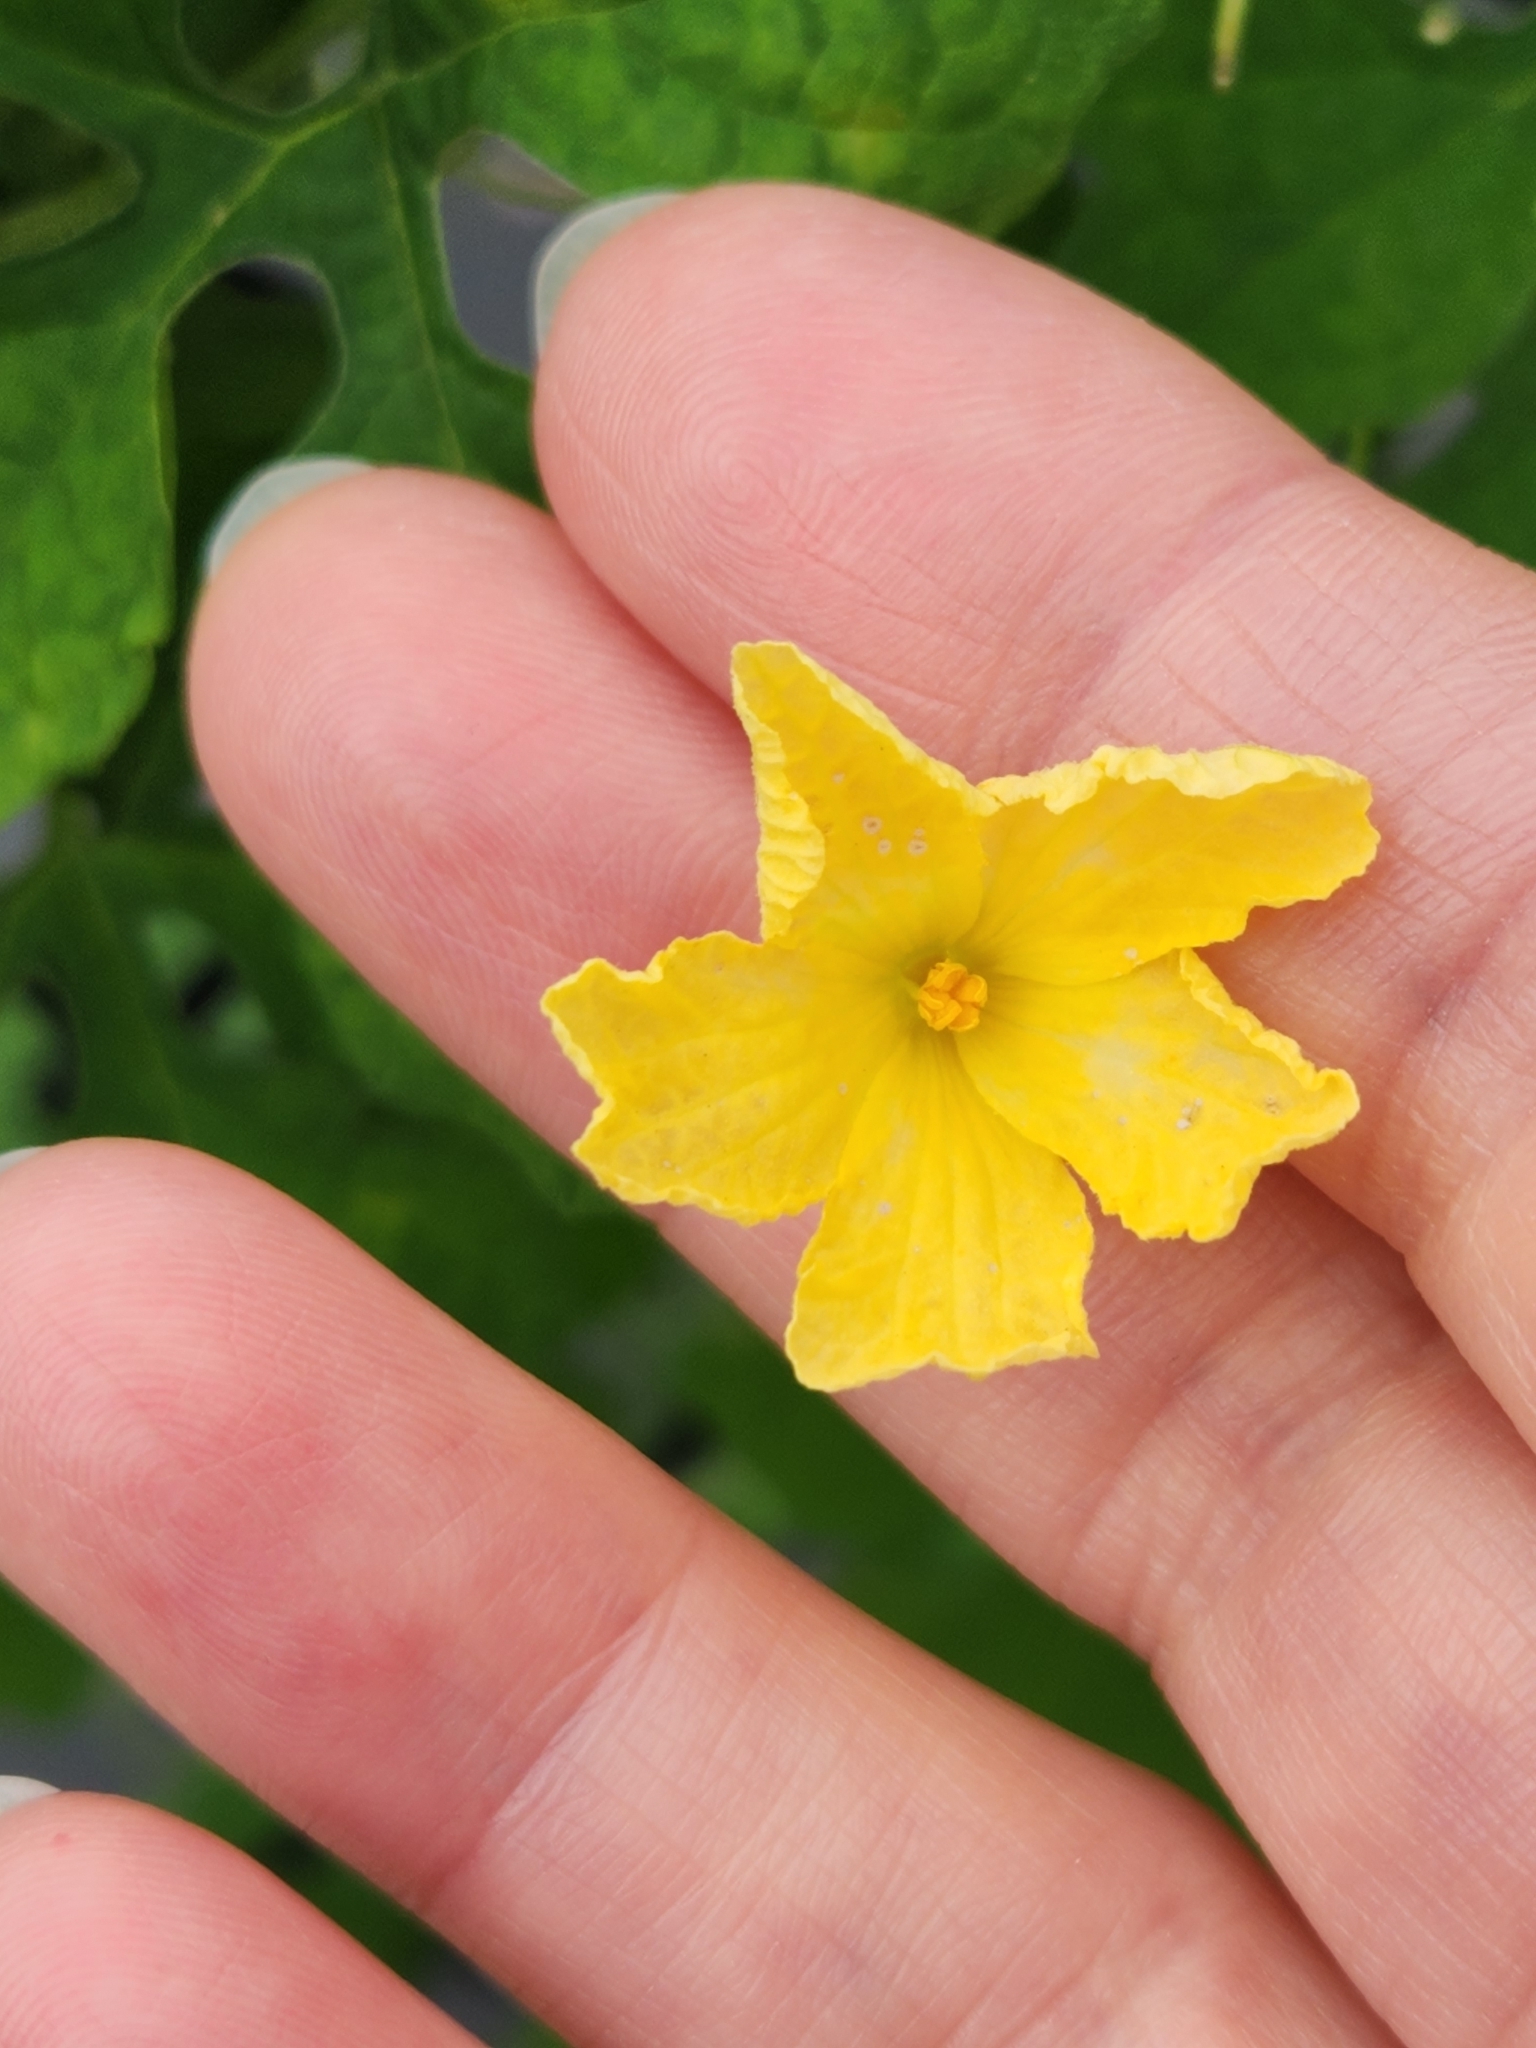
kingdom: Plantae
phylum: Tracheophyta
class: Magnoliopsida
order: Cucurbitales
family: Cucurbitaceae
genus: Momordica
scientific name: Momordica charantia
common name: Balsampear
